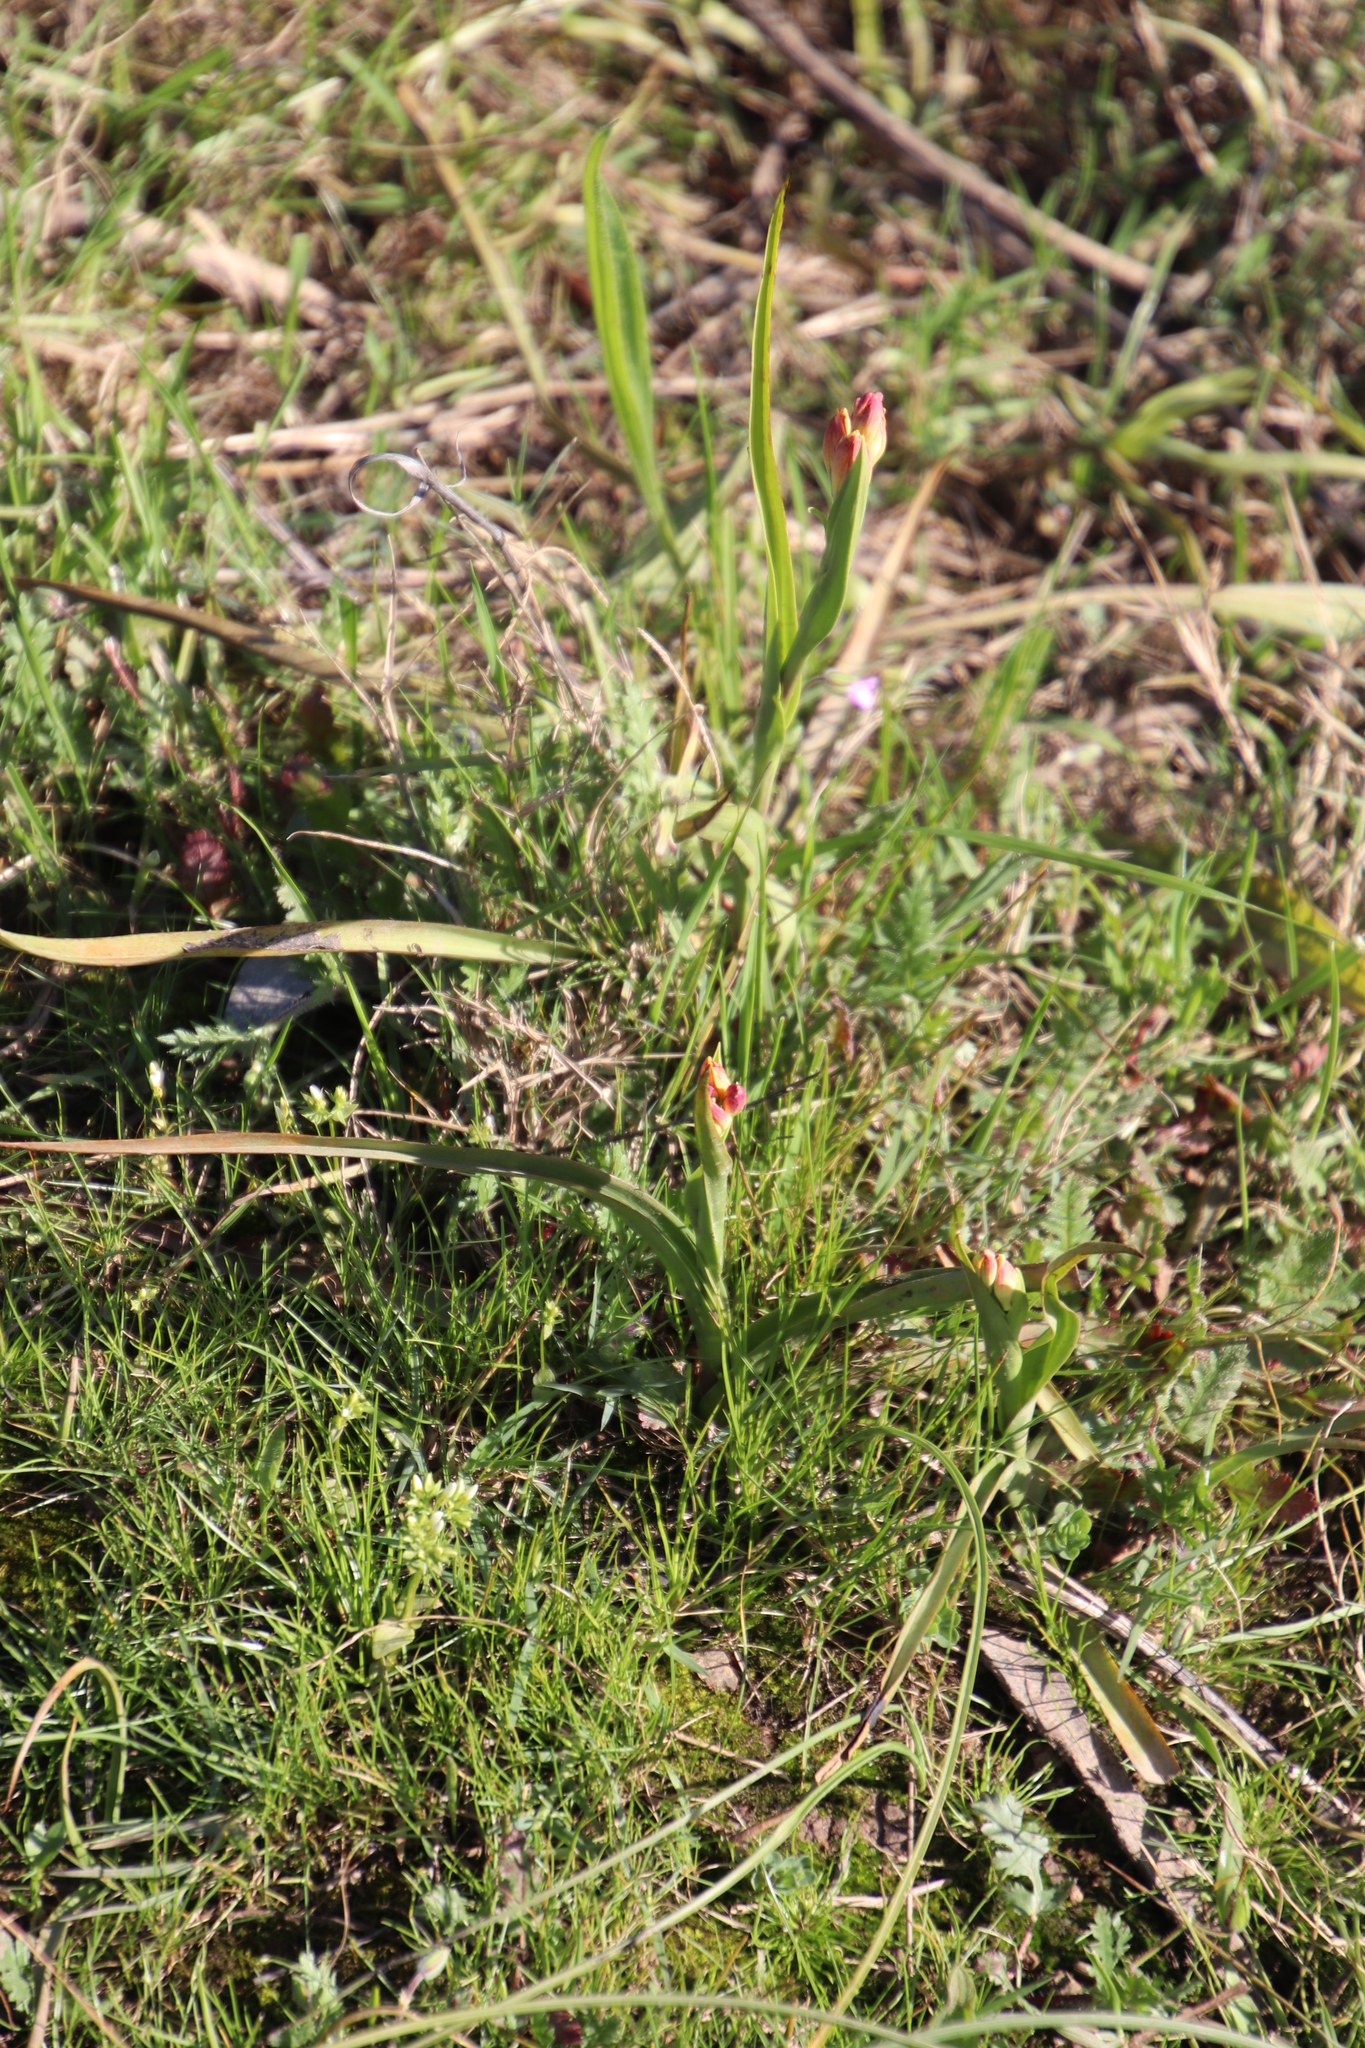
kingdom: Plantae
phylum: Tracheophyta
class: Liliopsida
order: Liliales
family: Colchicaceae
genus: Baeometra
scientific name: Baeometra uniflora
